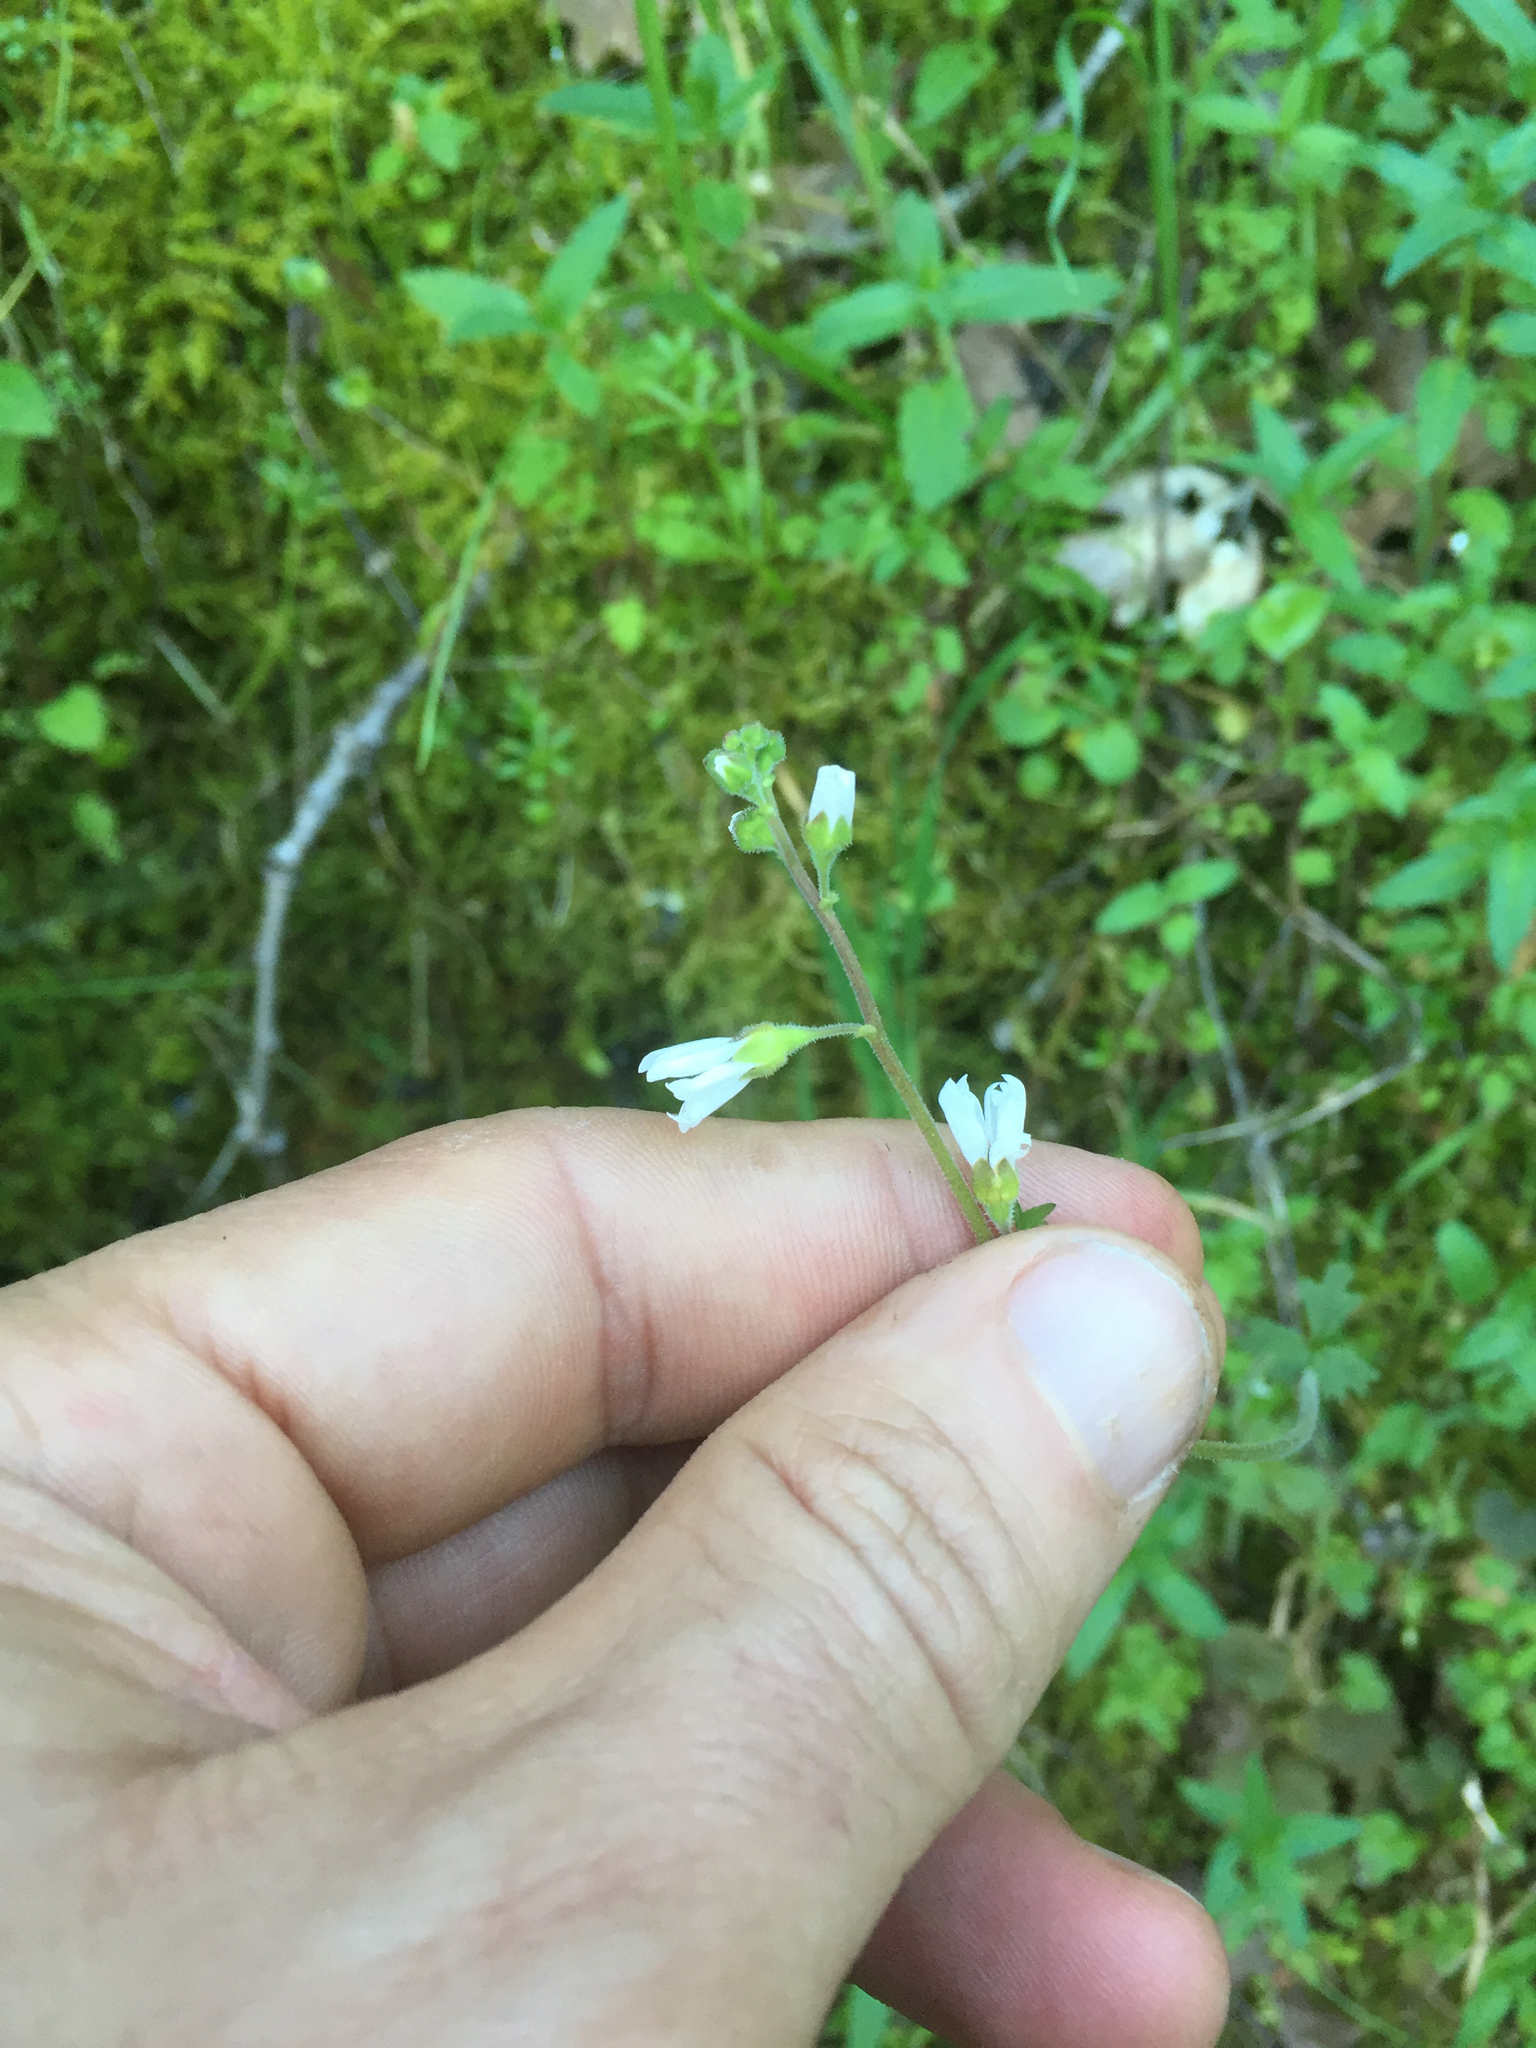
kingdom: Plantae
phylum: Tracheophyta
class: Magnoliopsida
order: Saxifragales
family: Saxifragaceae
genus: Lithophragma
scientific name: Lithophragma affine
